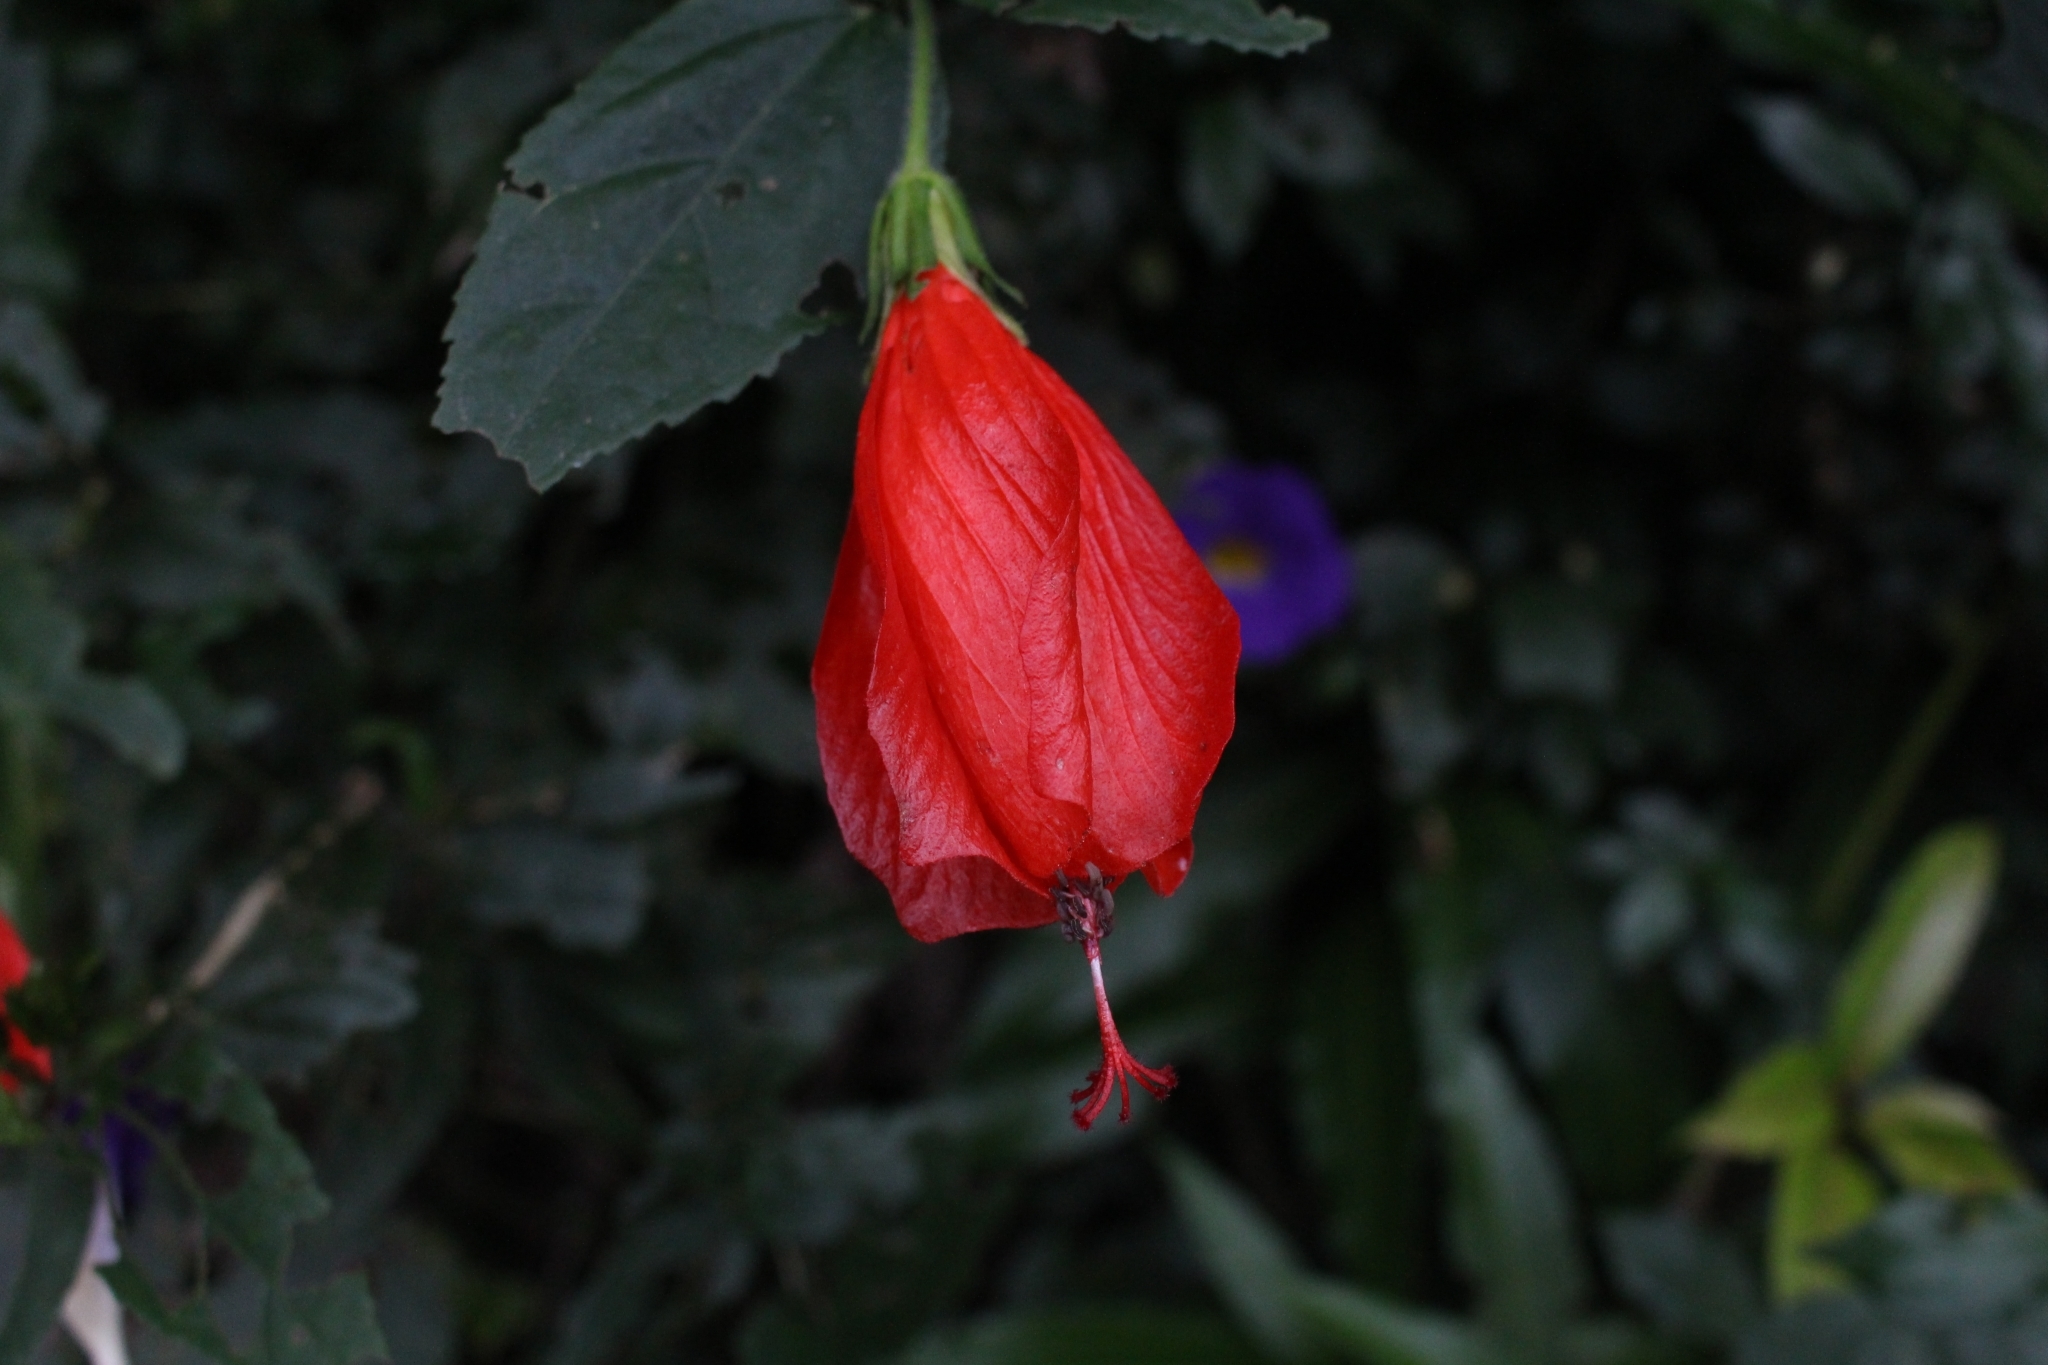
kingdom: Plantae
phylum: Tracheophyta
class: Magnoliopsida
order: Malvales
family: Malvaceae
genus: Malvaviscus
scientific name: Malvaviscus penduliflorus
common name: Mazapan
